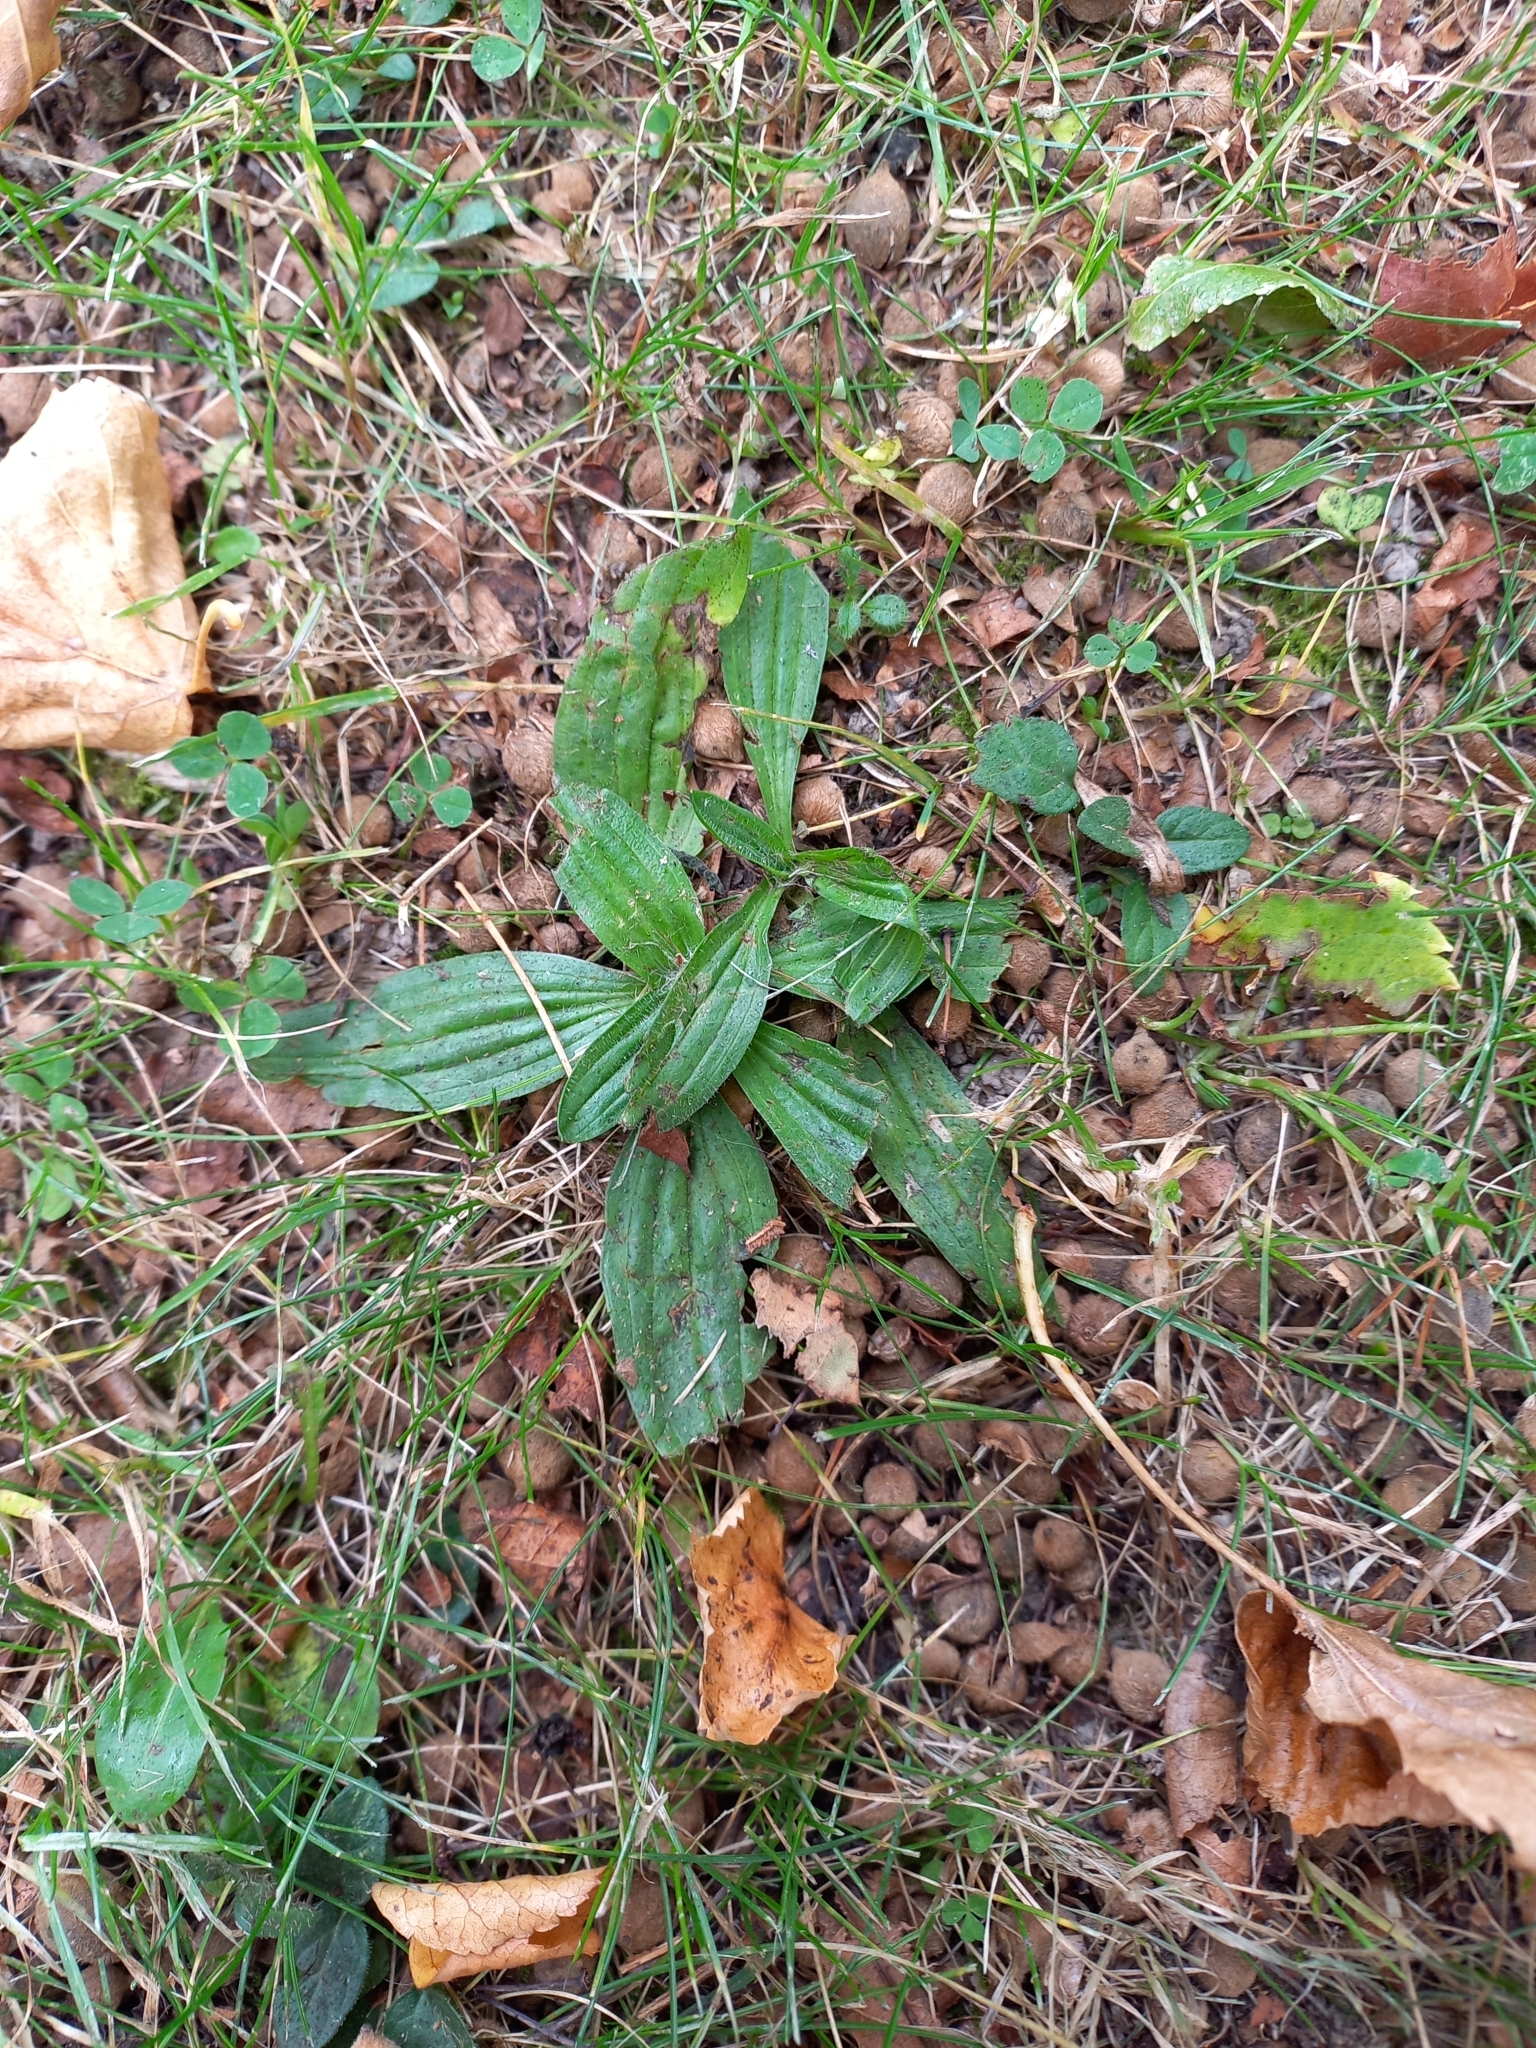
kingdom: Plantae
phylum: Tracheophyta
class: Magnoliopsida
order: Lamiales
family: Plantaginaceae
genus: Plantago
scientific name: Plantago lanceolata
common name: Ribwort plantain
